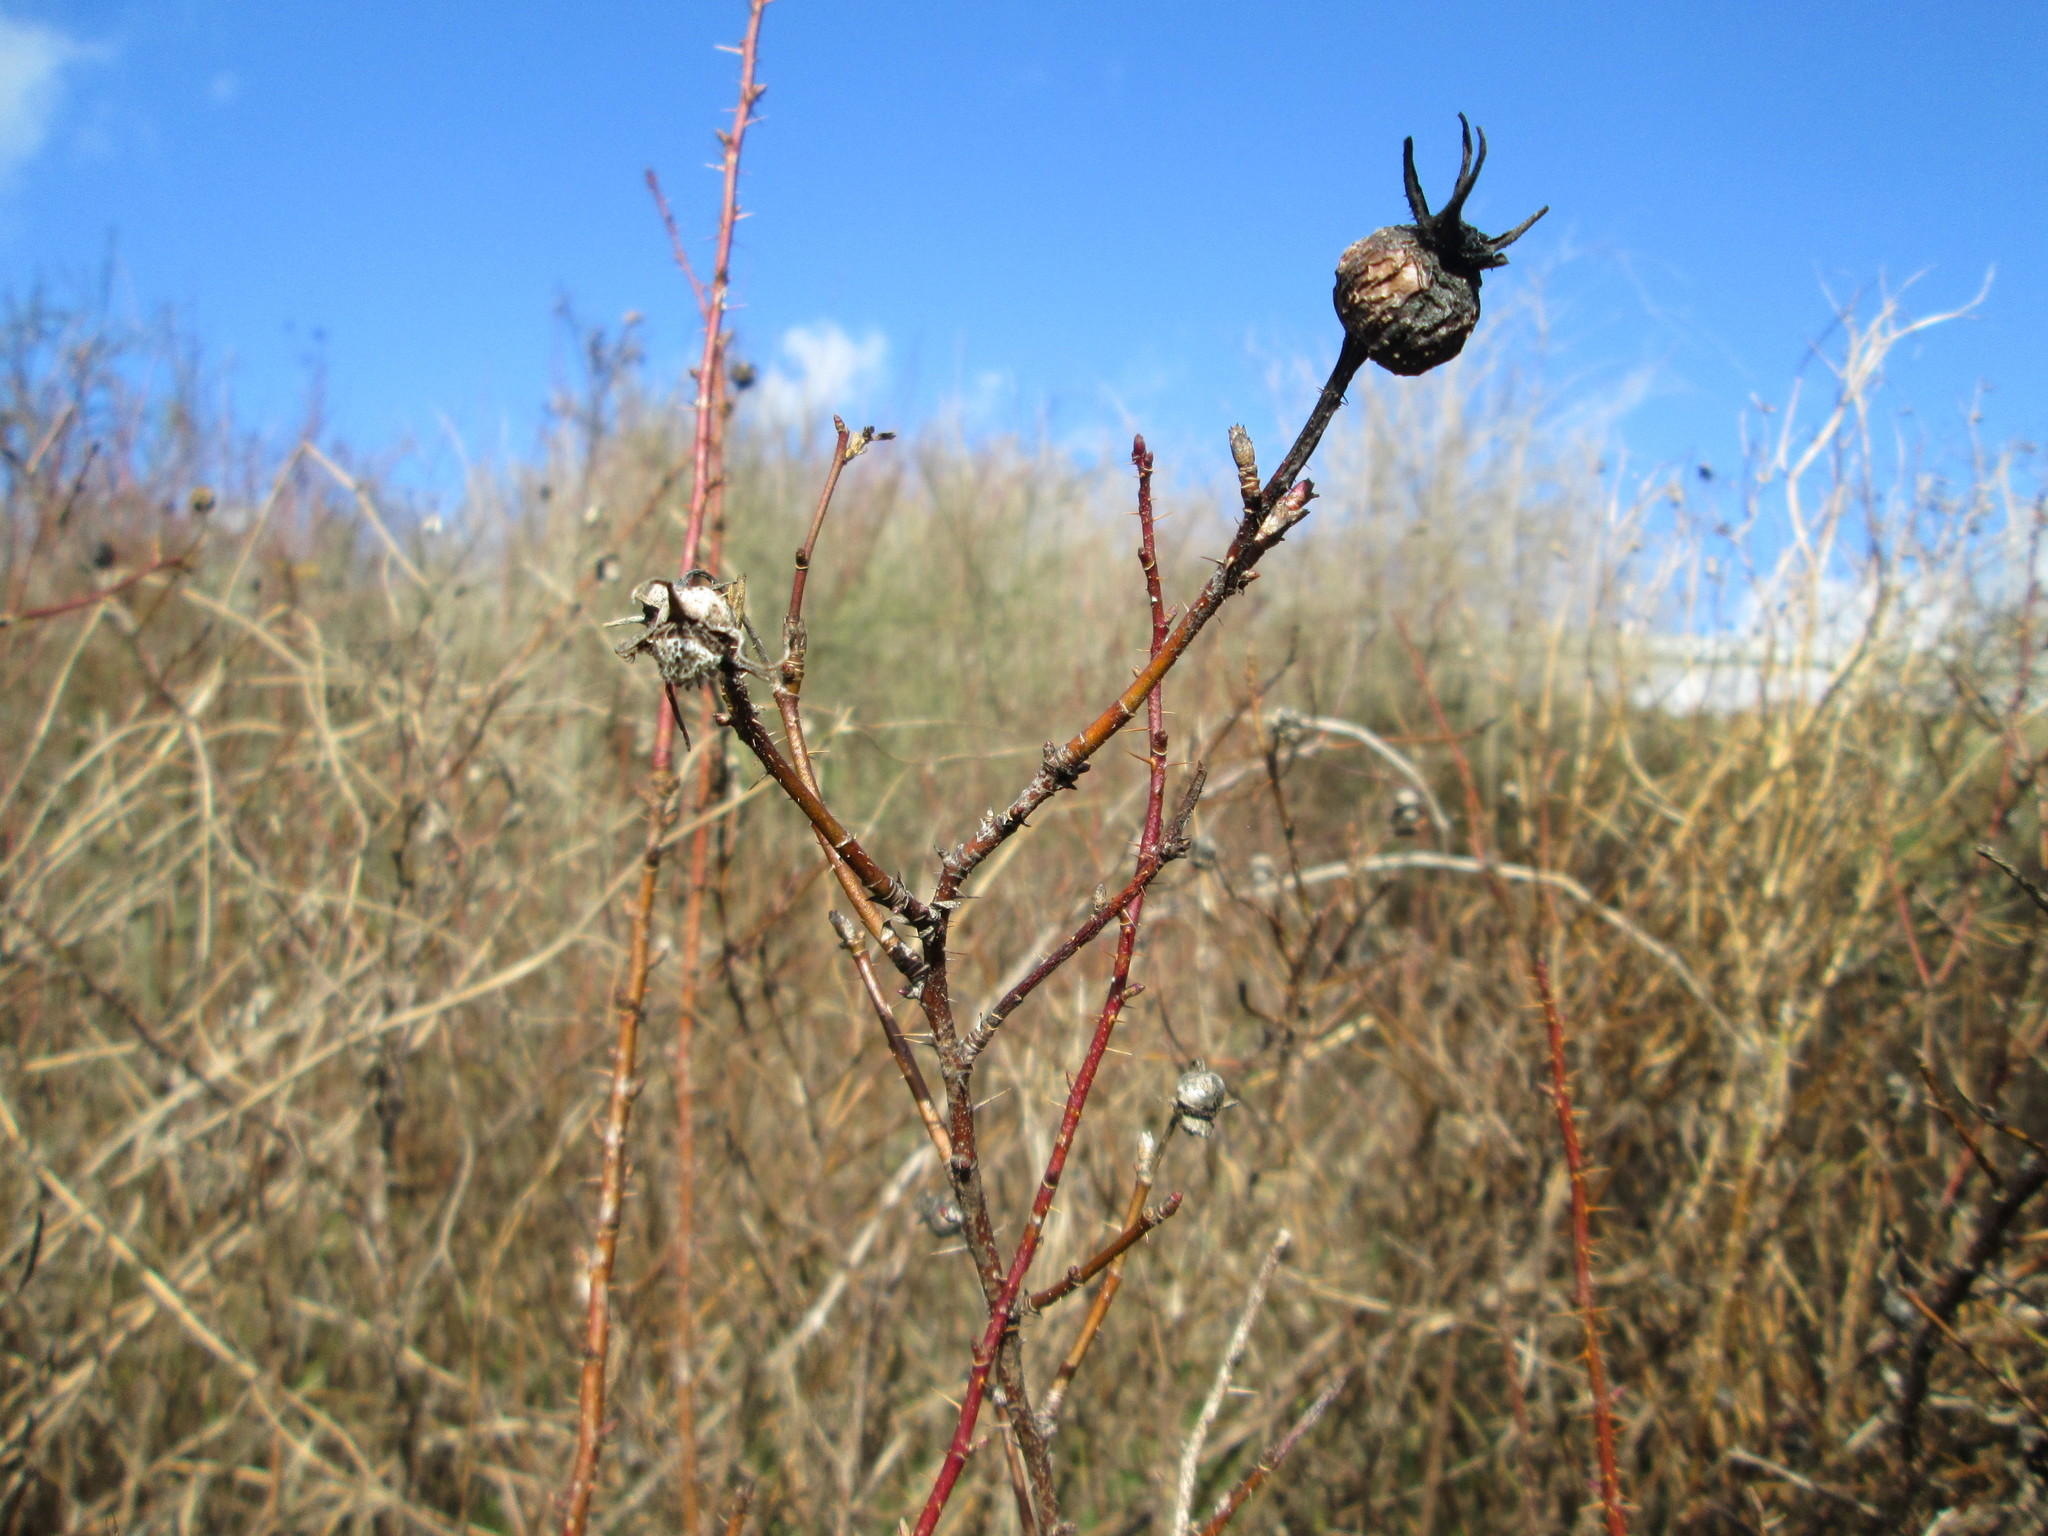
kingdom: Plantae
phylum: Tracheophyta
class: Magnoliopsida
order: Rosales
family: Rosaceae
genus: Rosa
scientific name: Rosa spinosissima
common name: Burnet rose
